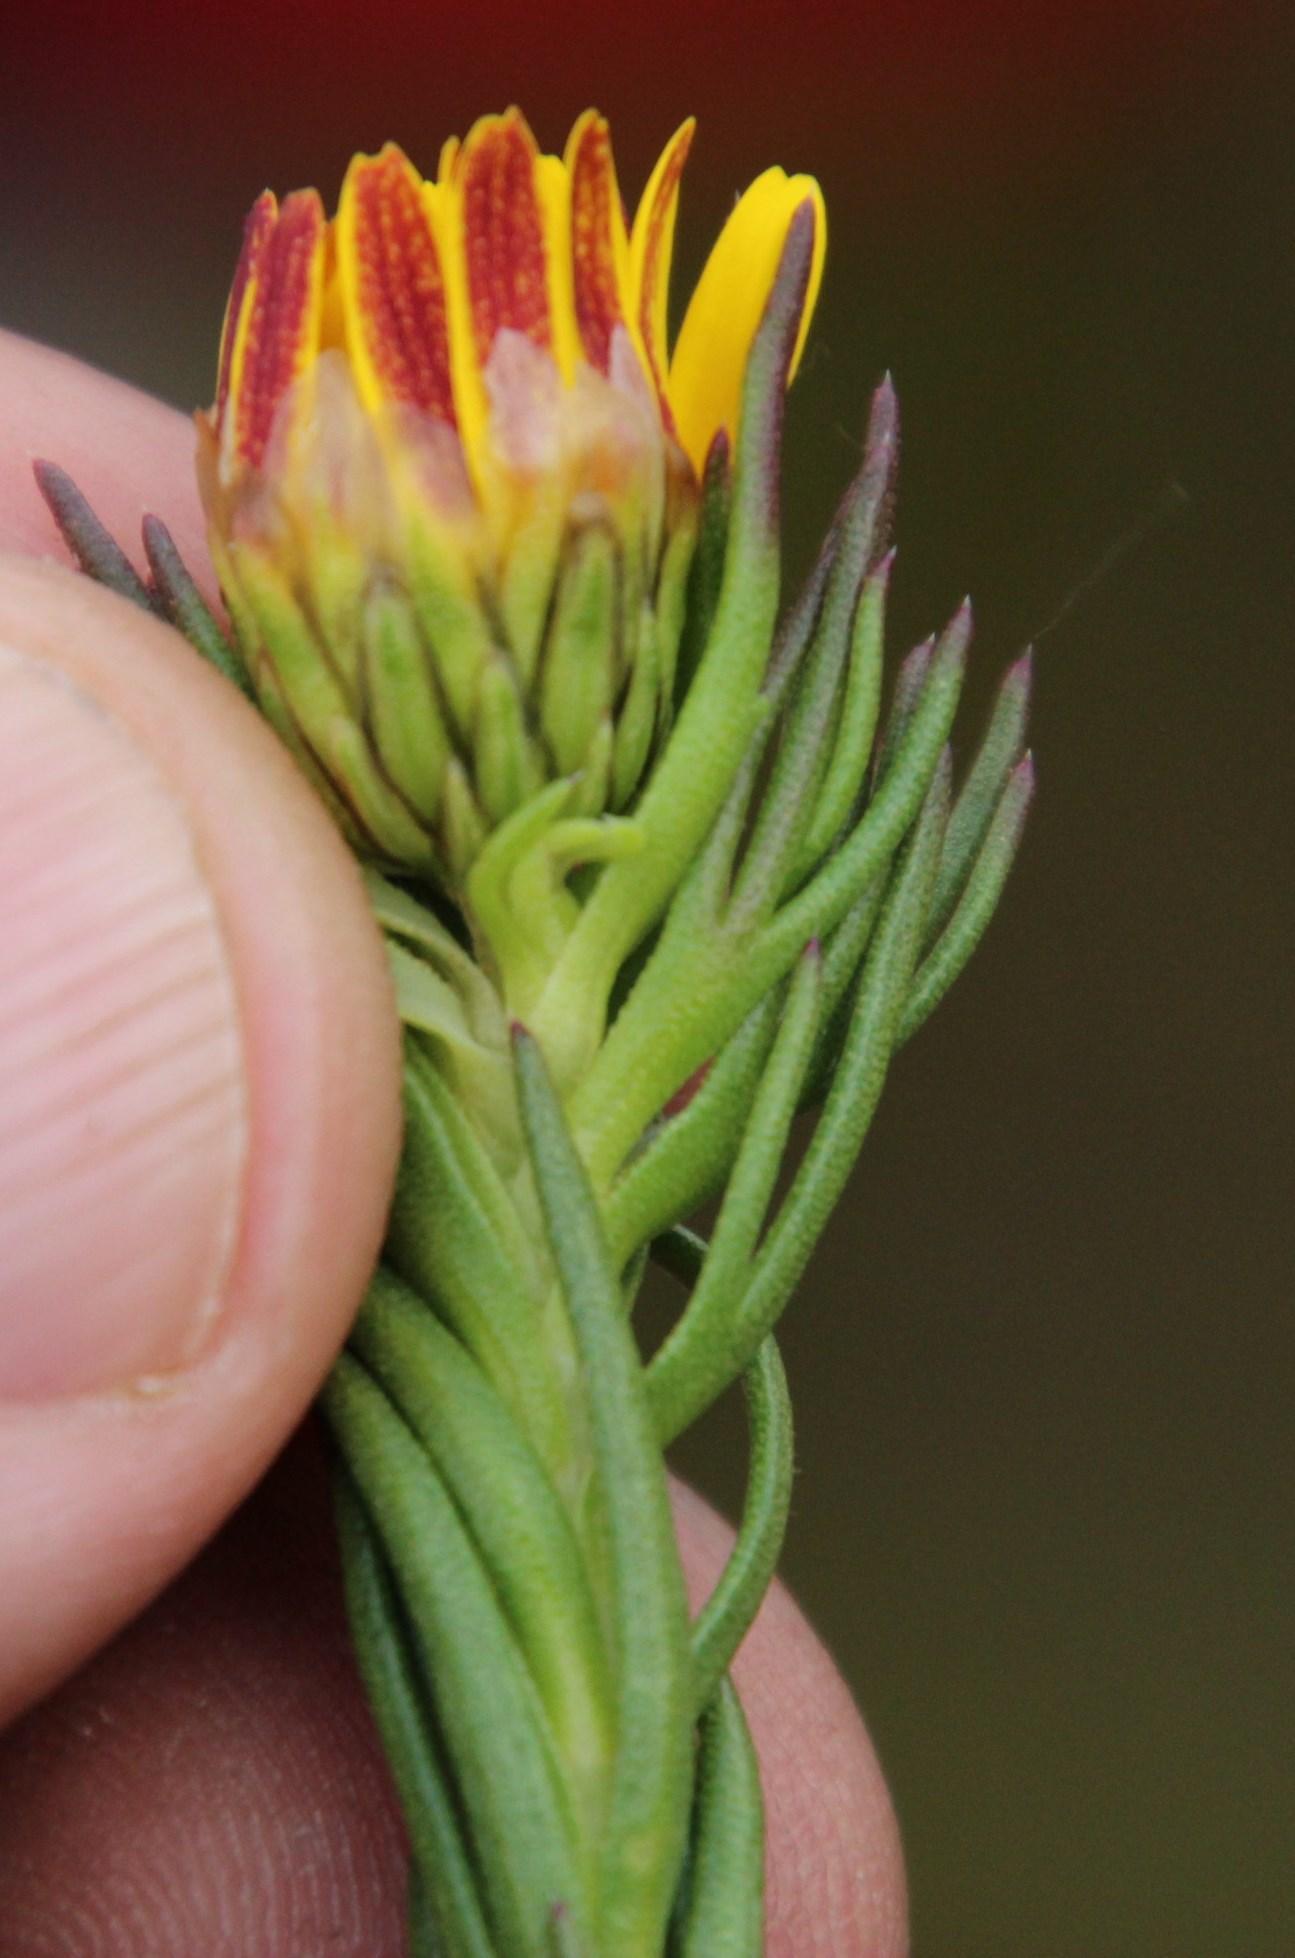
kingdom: Plantae
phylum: Tracheophyta
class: Magnoliopsida
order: Asterales
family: Asteraceae
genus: Ursinia
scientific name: Ursinia quinquepartita
